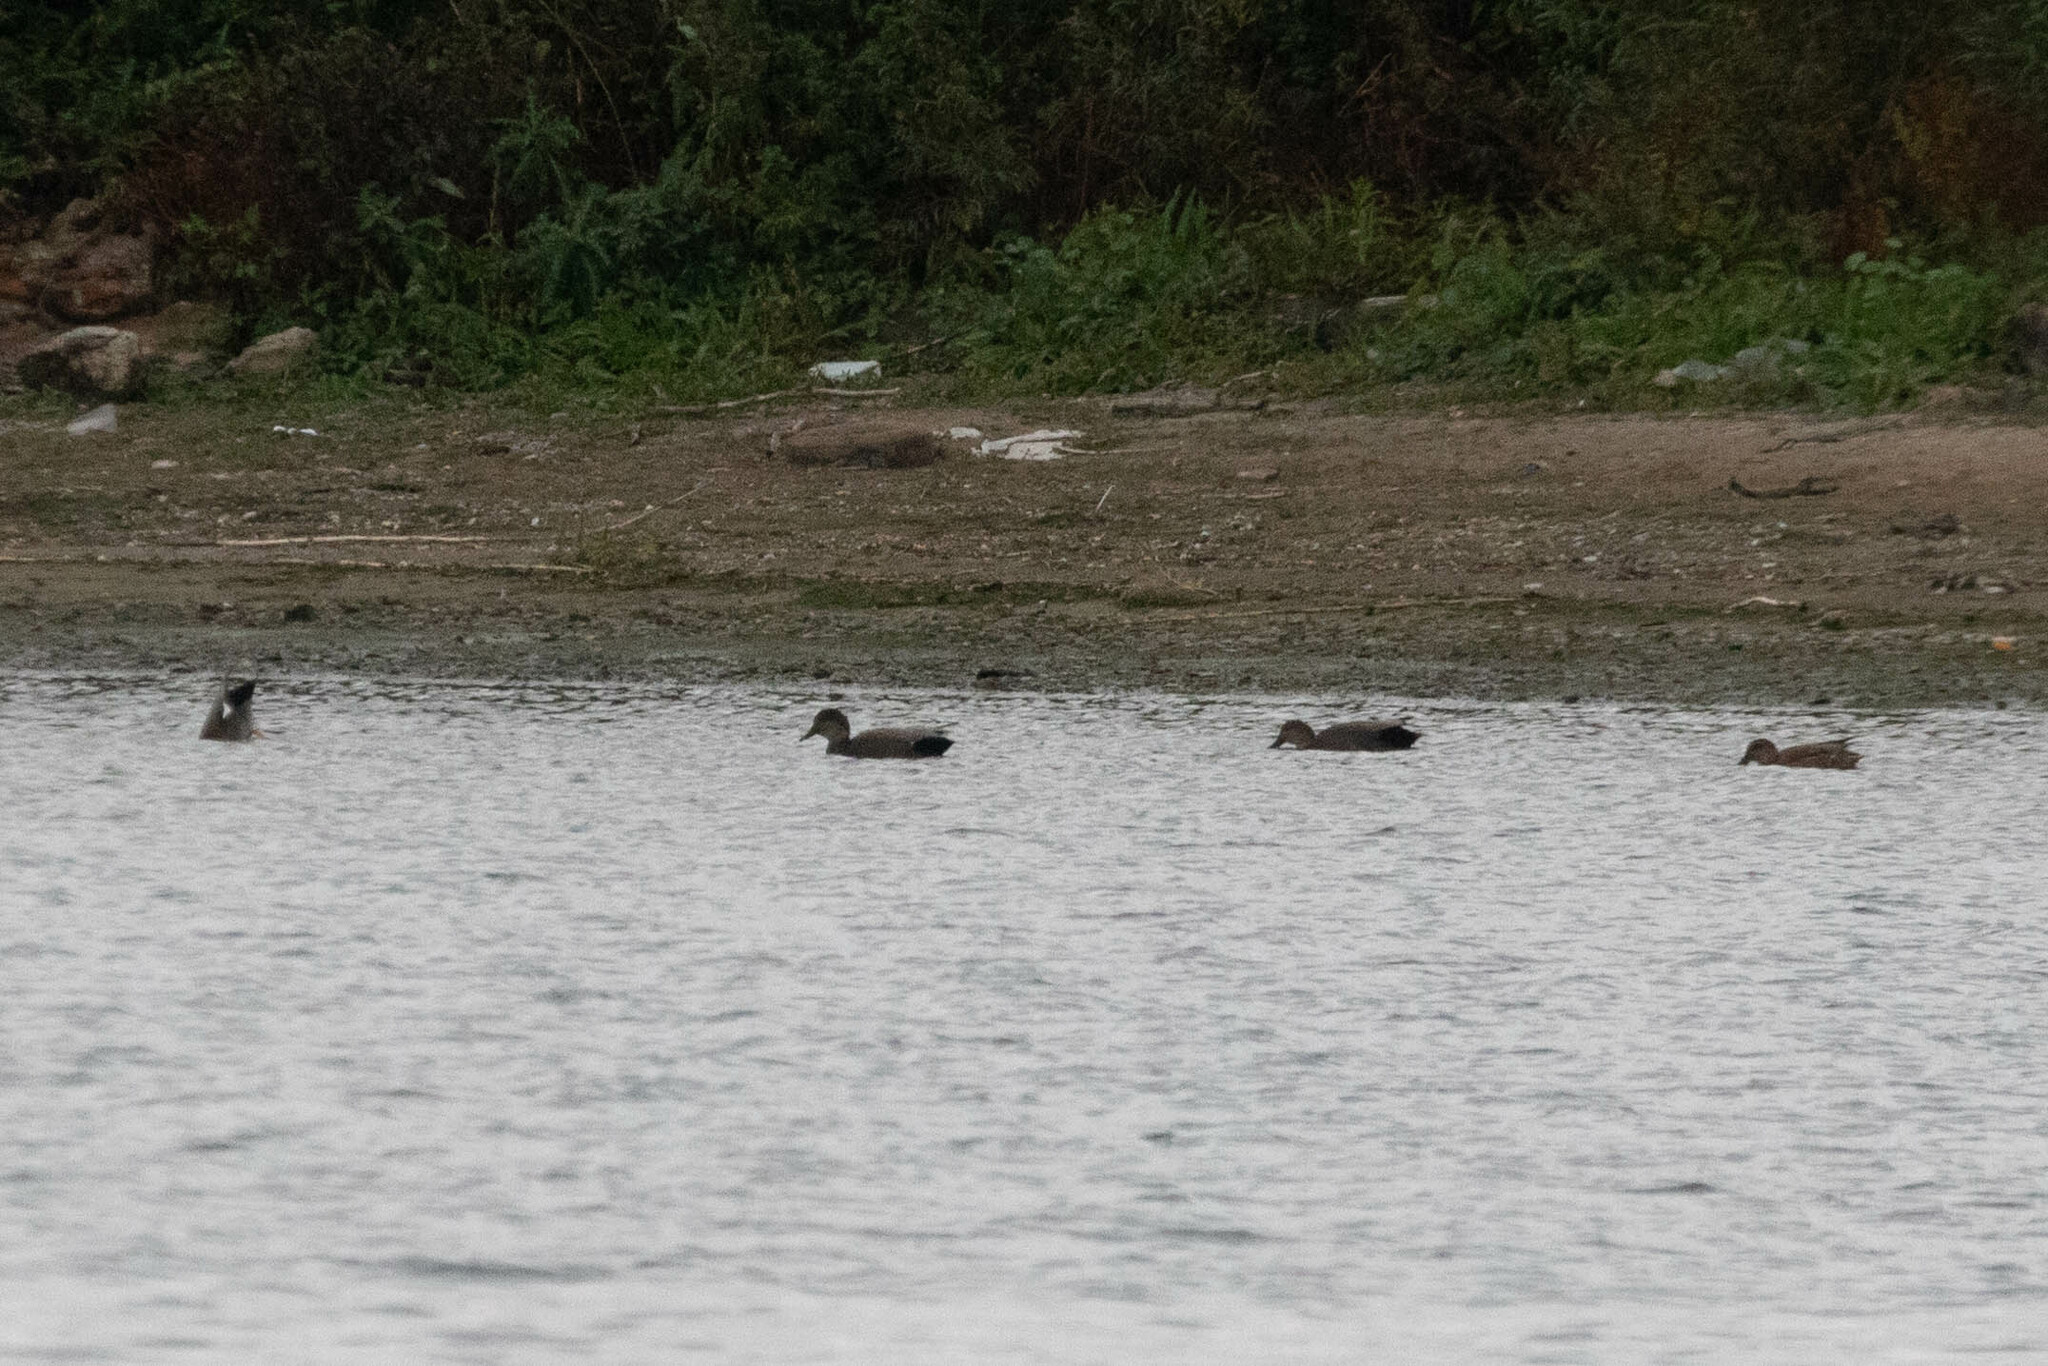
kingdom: Animalia
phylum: Chordata
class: Aves
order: Anseriformes
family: Anatidae
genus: Mareca
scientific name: Mareca strepera
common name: Gadwall
